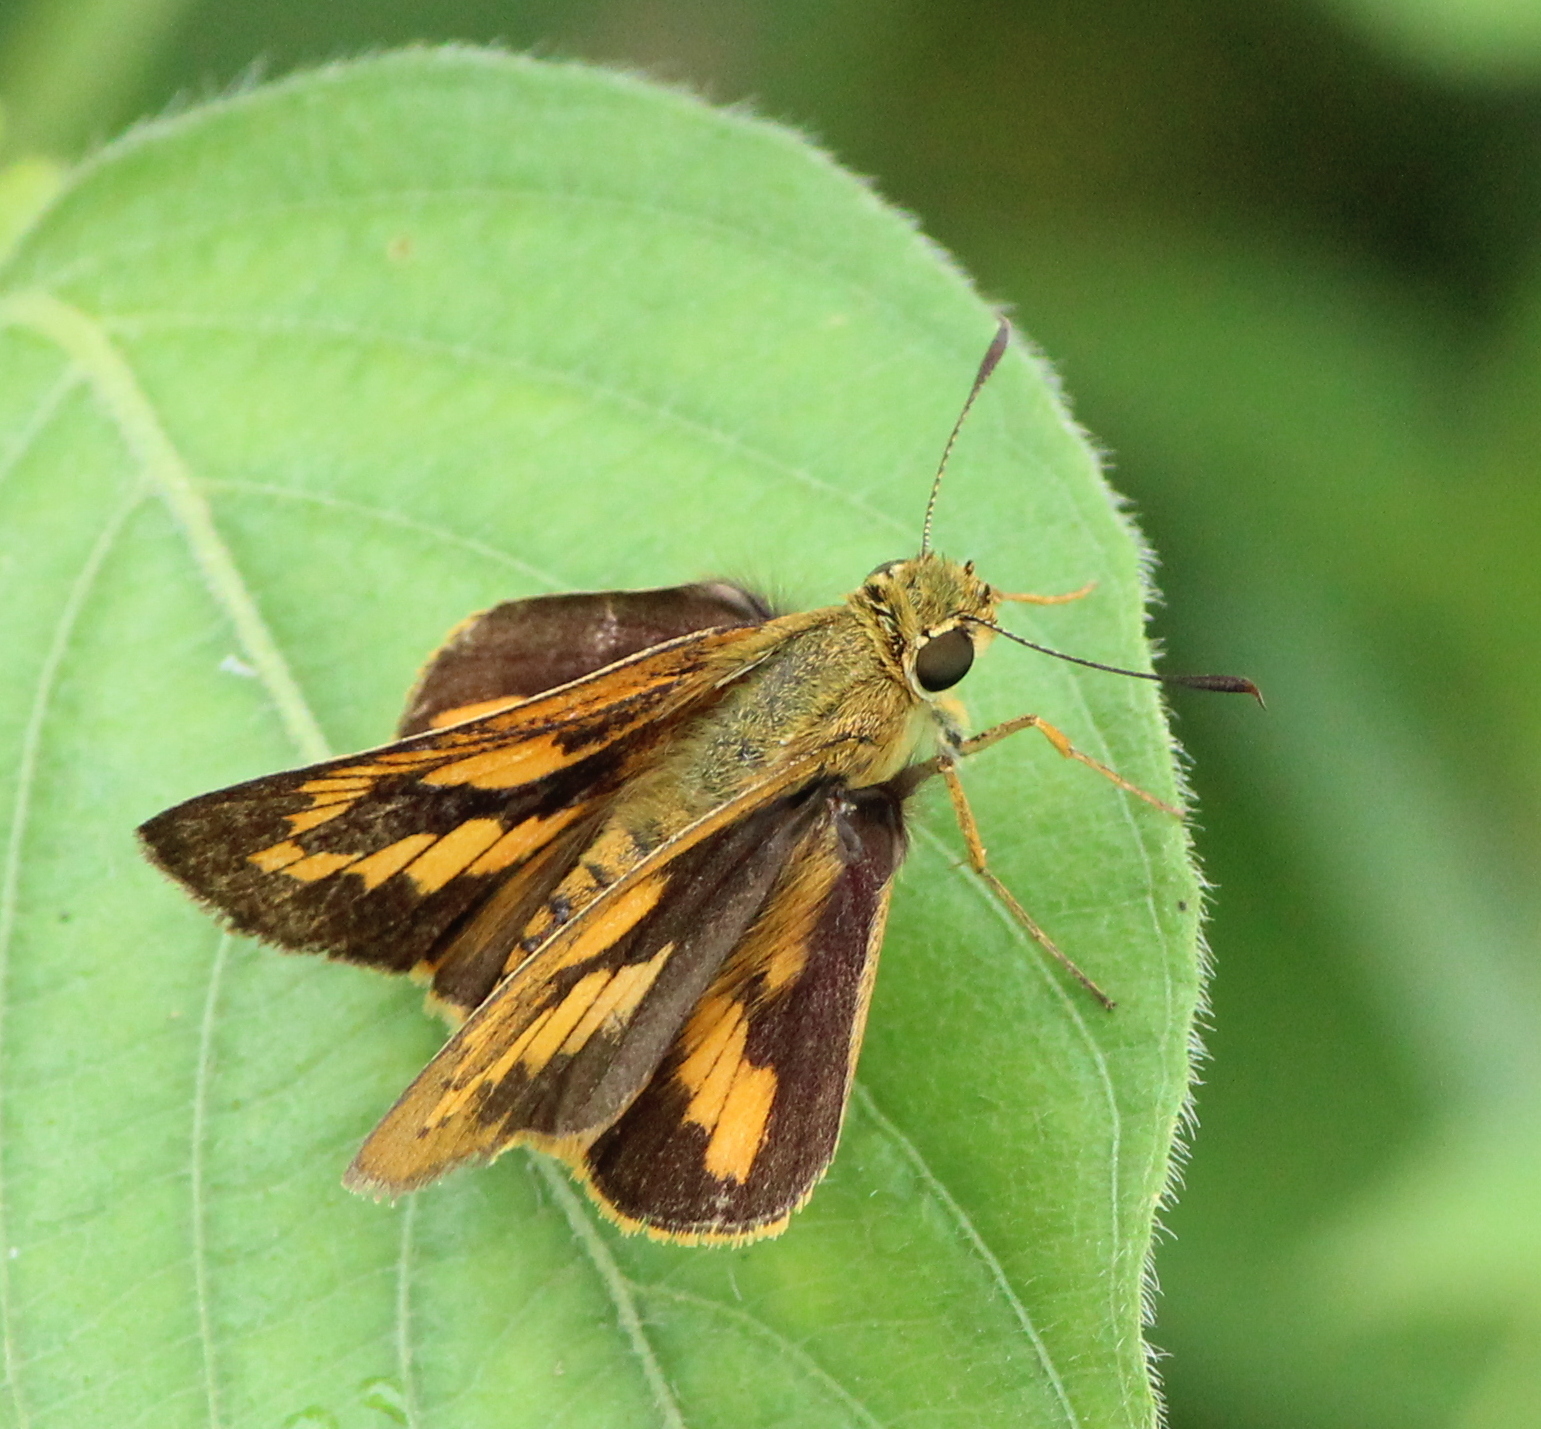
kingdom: Animalia
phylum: Arthropoda
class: Insecta
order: Lepidoptera
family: Hesperiidae
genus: Telicota
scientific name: Telicota bambusae
